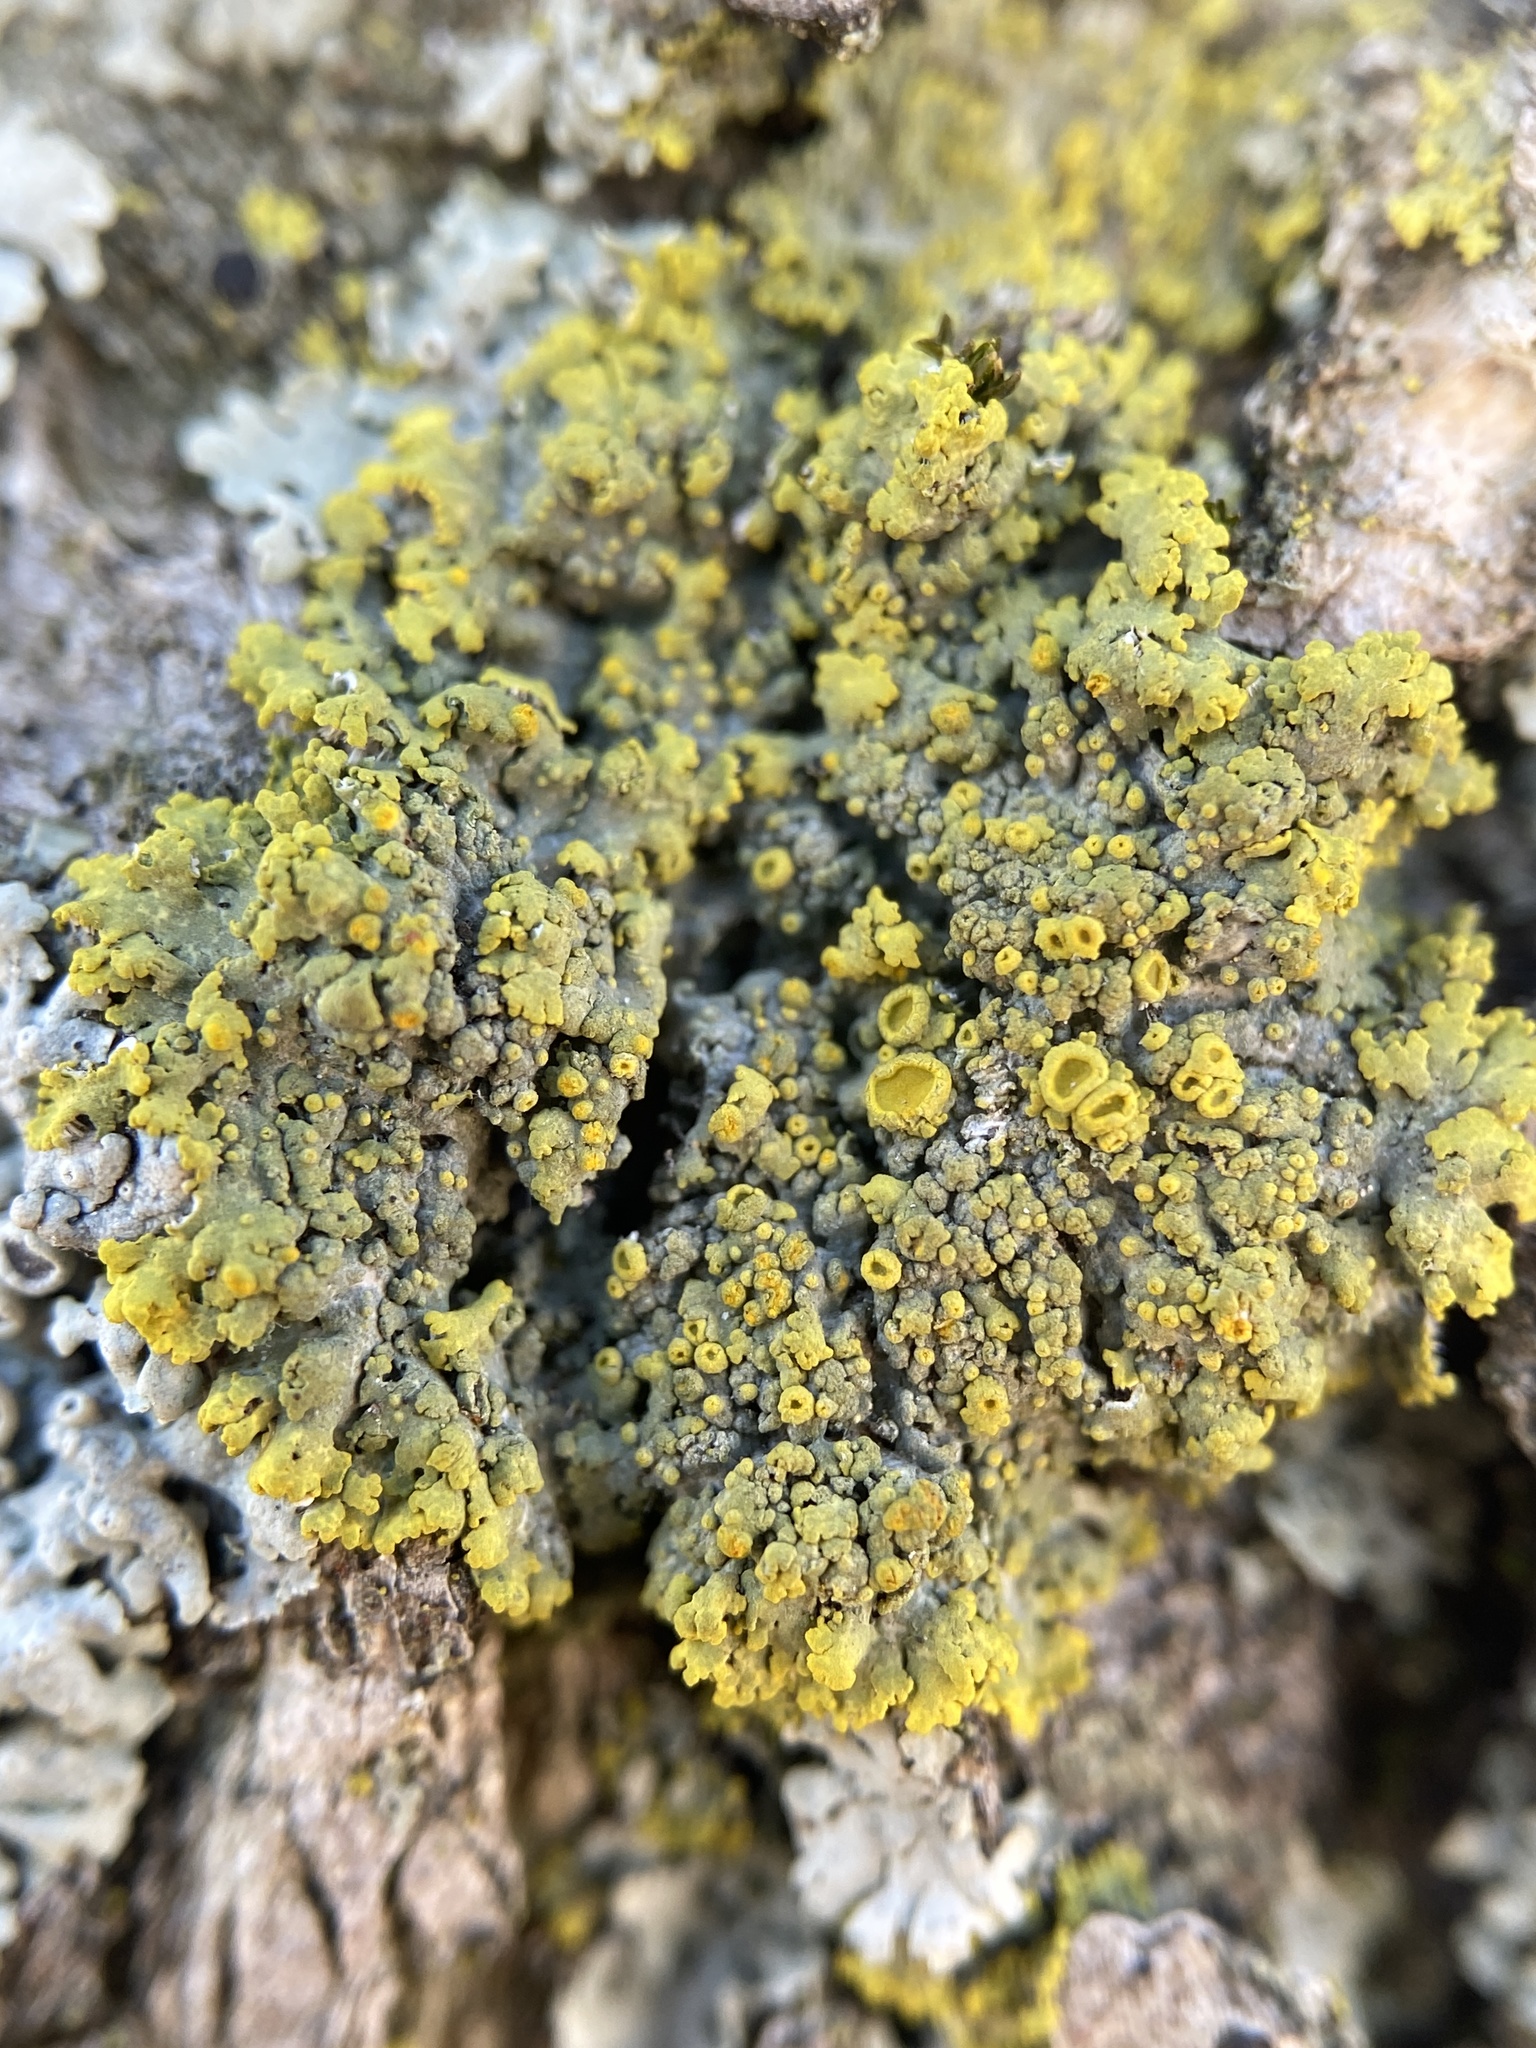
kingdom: Fungi
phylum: Ascomycota
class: Candelariomycetes
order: Candelariales
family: Candelariaceae
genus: Candelaria
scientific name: Candelaria fibrosa
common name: Fringed candleflame lichen
